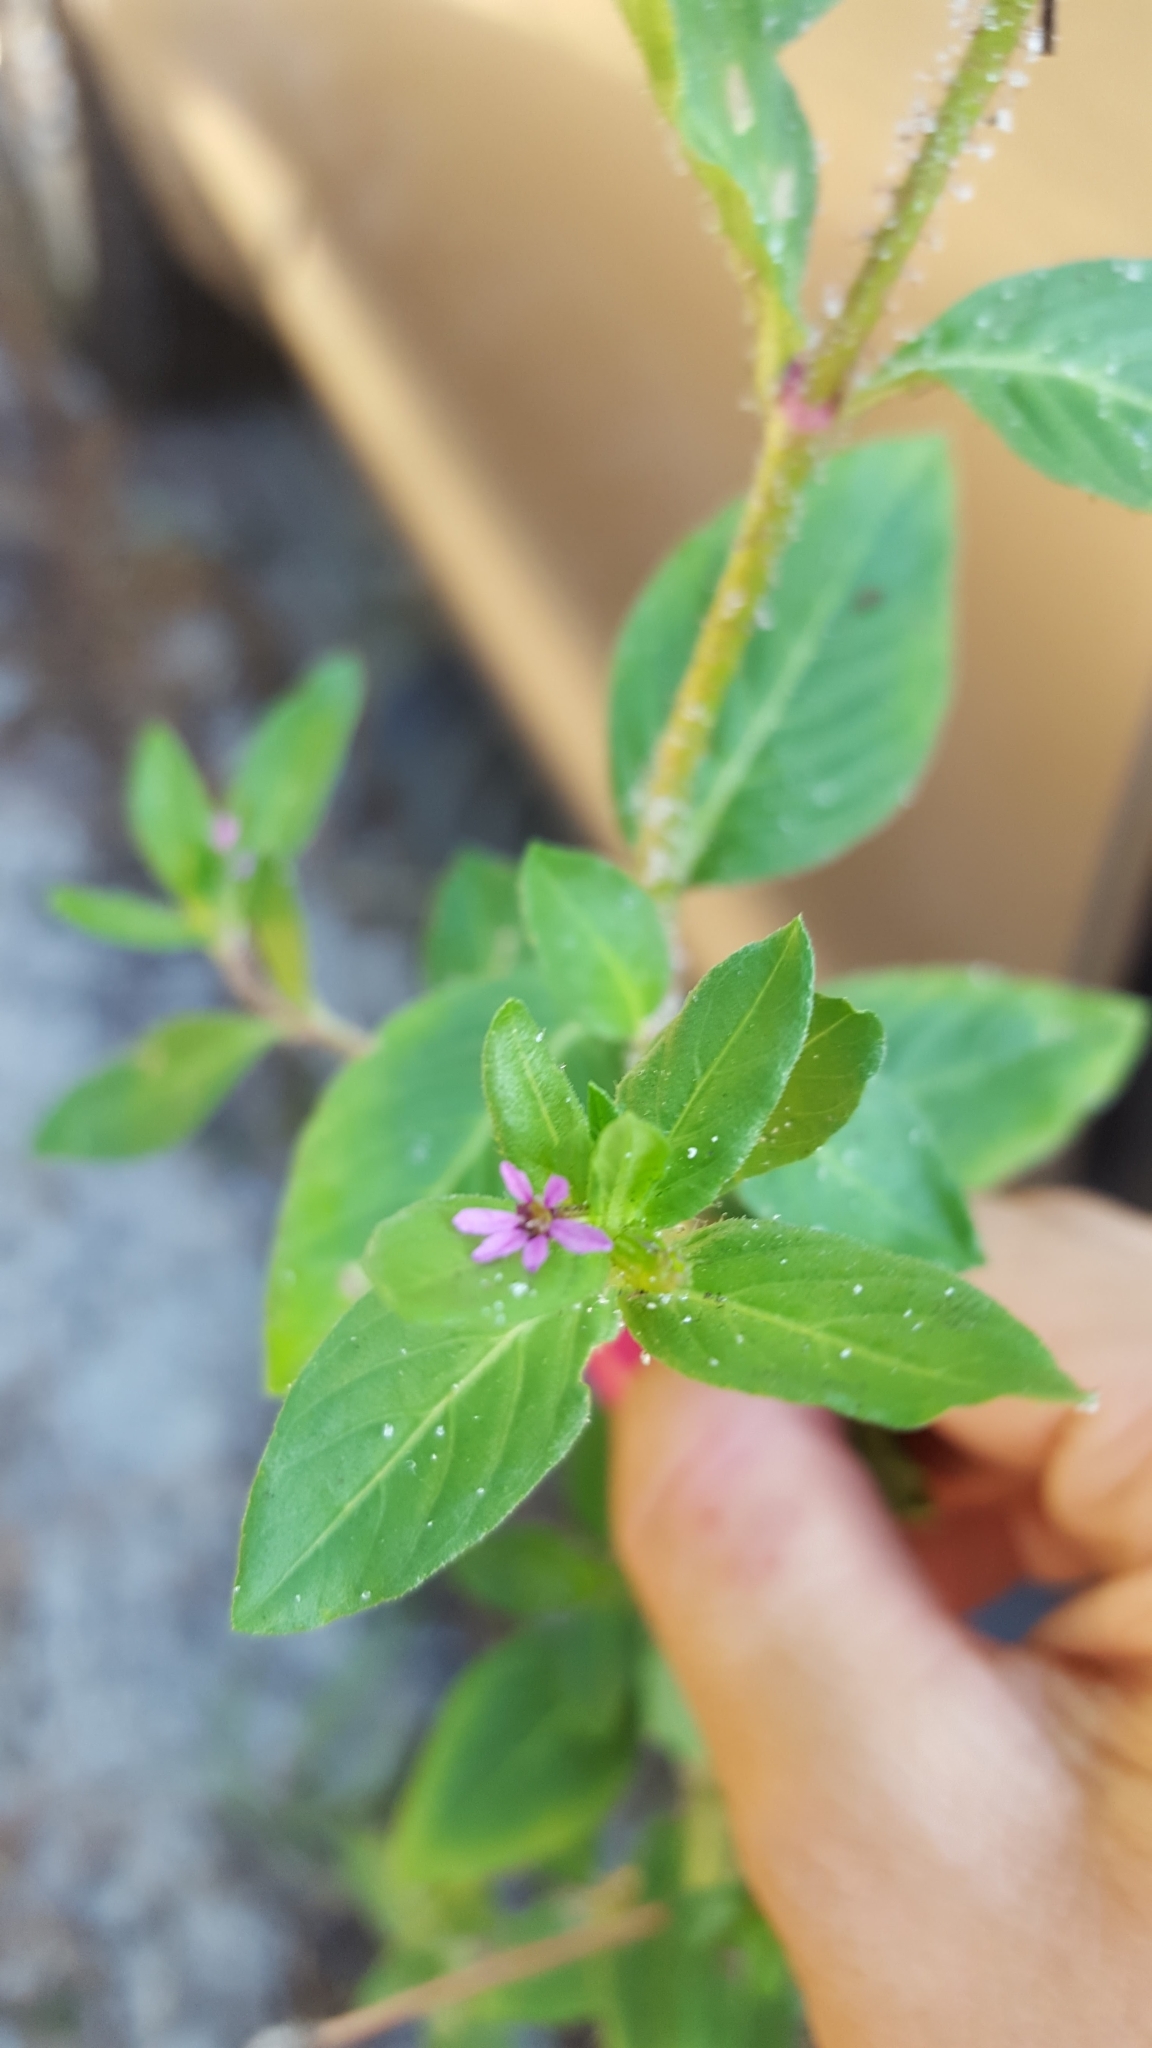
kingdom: Plantae
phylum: Tracheophyta
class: Magnoliopsida
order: Myrtales
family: Lythraceae
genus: Cuphea
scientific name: Cuphea carthagenensis
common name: Colombian waxweed
